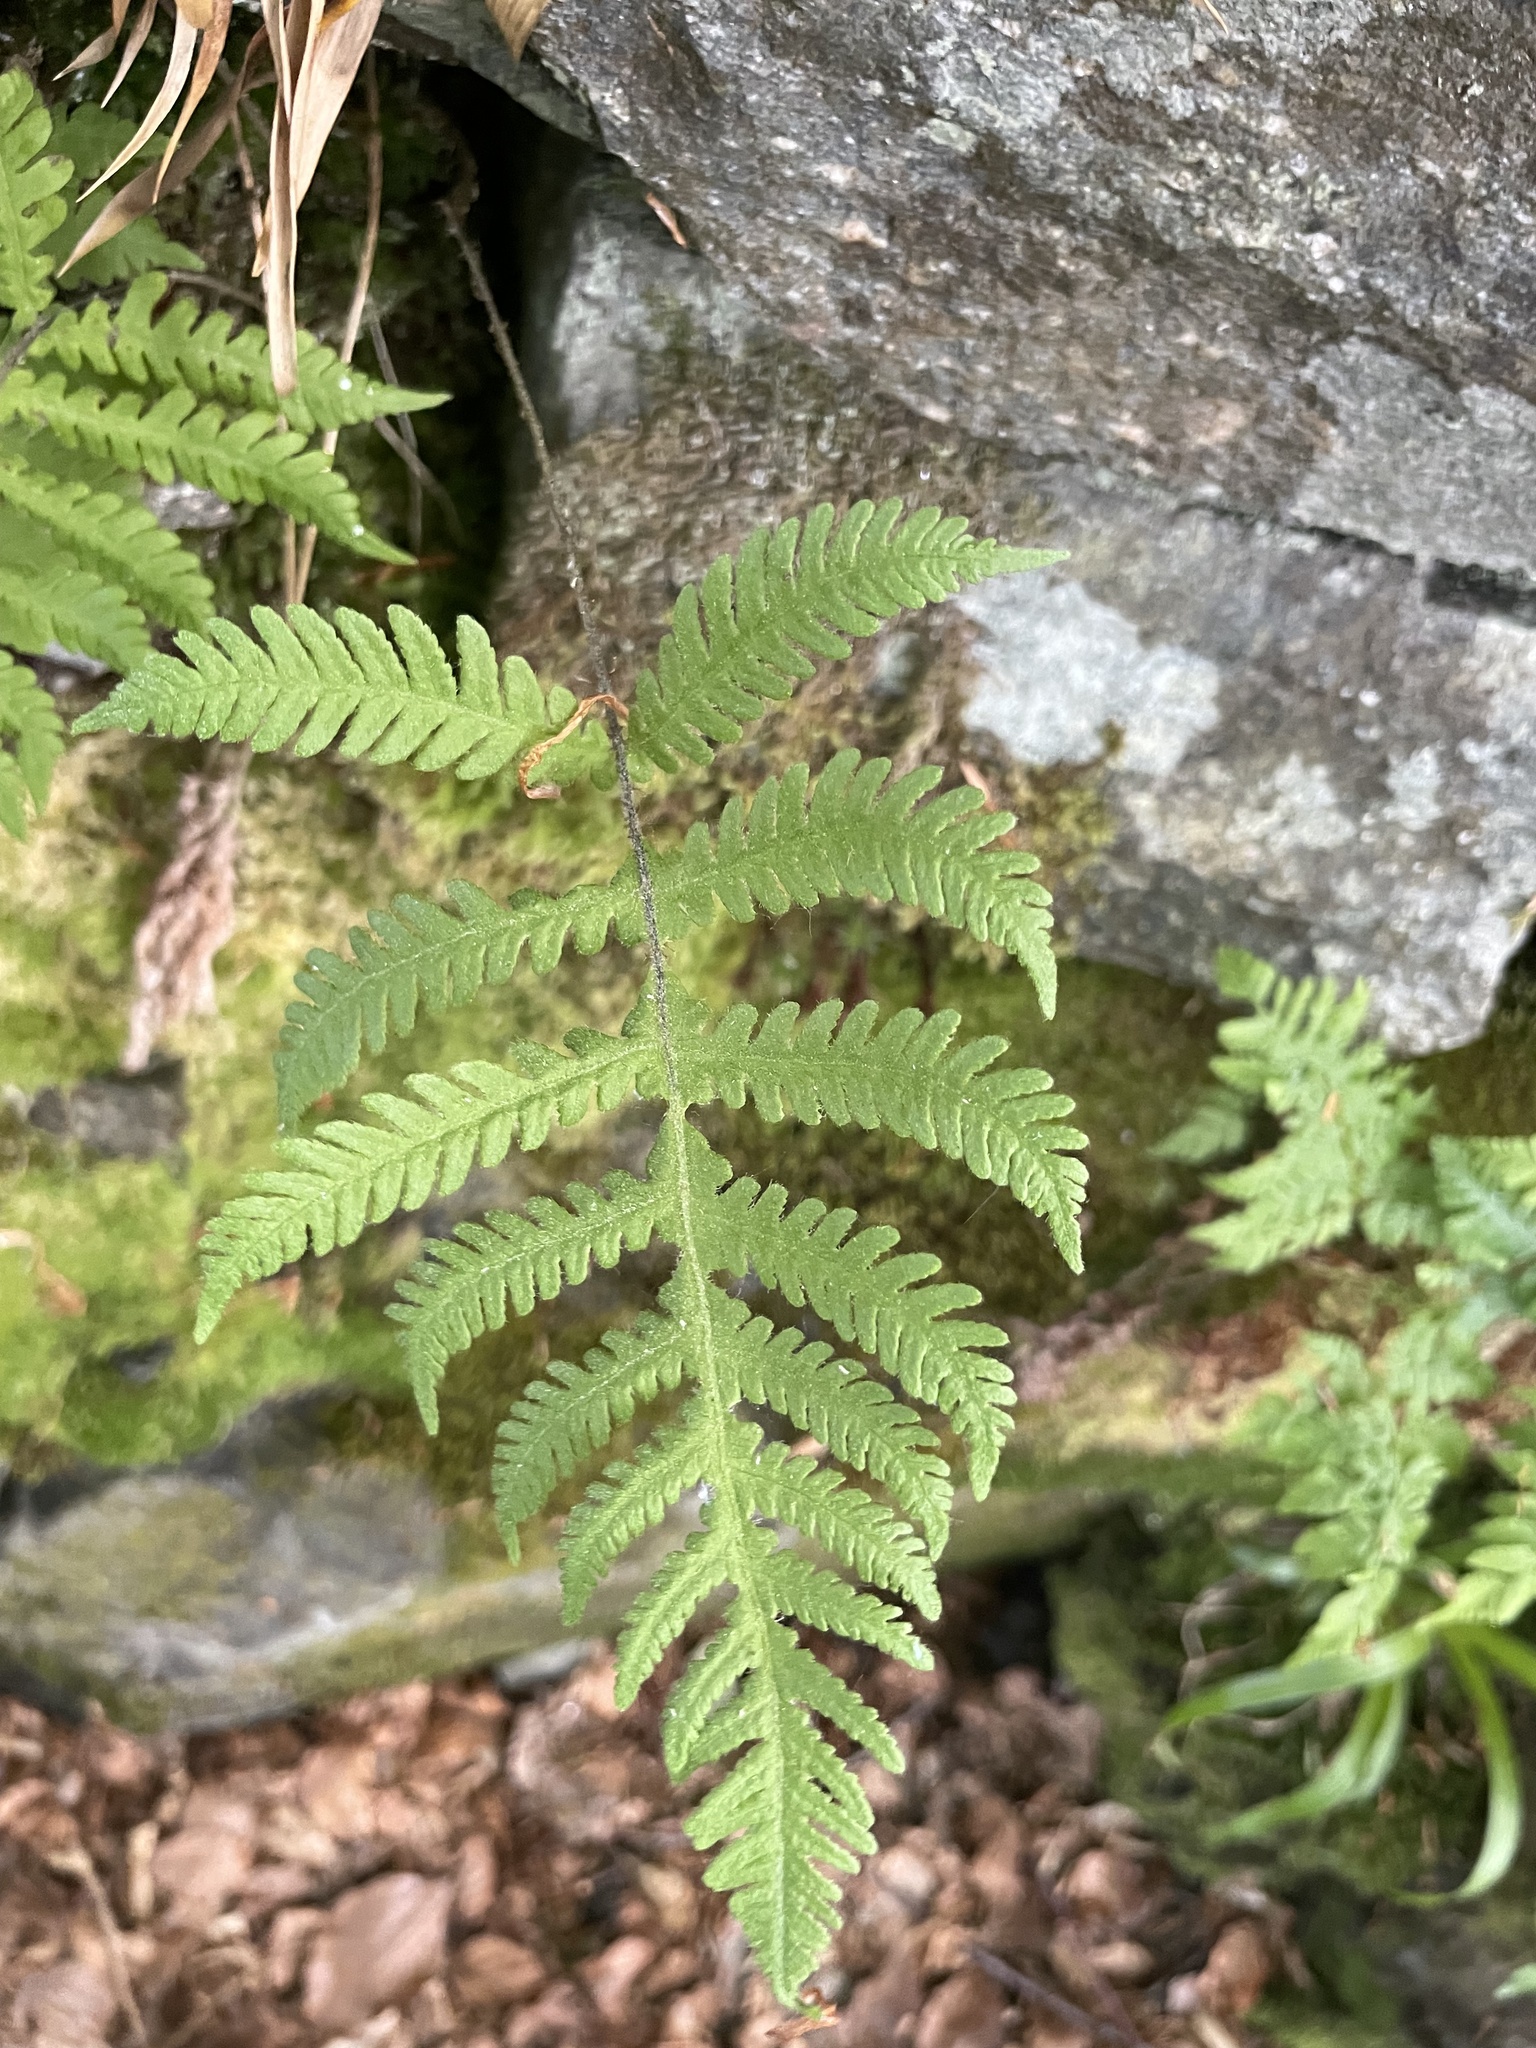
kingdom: Plantae
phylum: Tracheophyta
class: Polypodiopsida
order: Polypodiales
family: Thelypteridaceae
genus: Phegopteris
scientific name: Phegopteris connectilis
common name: Beech fern
